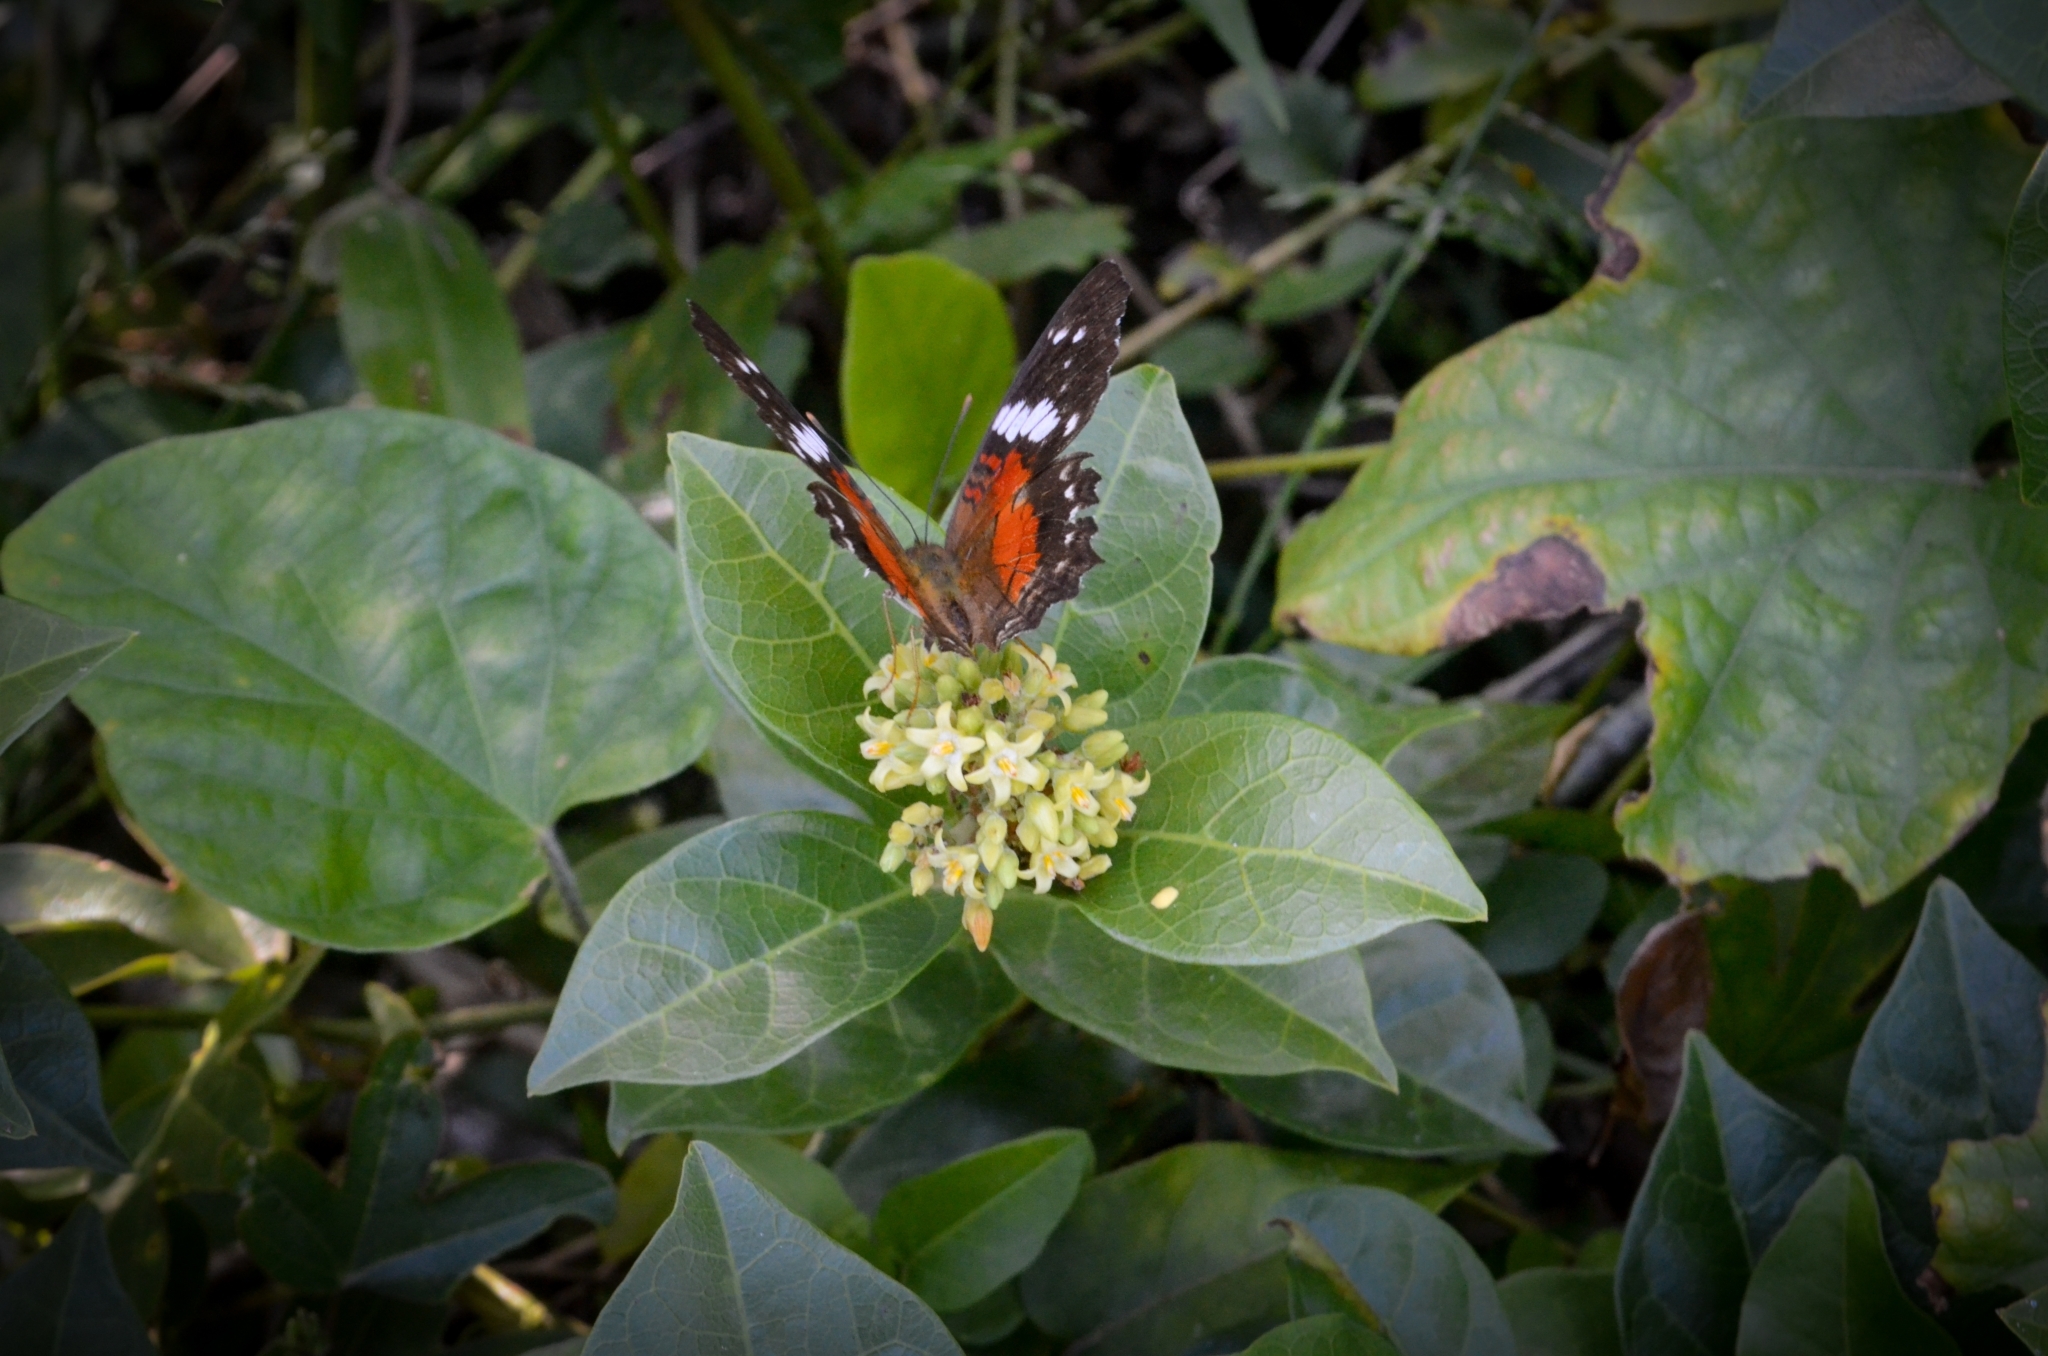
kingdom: Animalia
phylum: Arthropoda
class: Insecta
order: Lepidoptera
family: Nymphalidae
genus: Anartia
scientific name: Anartia amathea
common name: Red peacock
